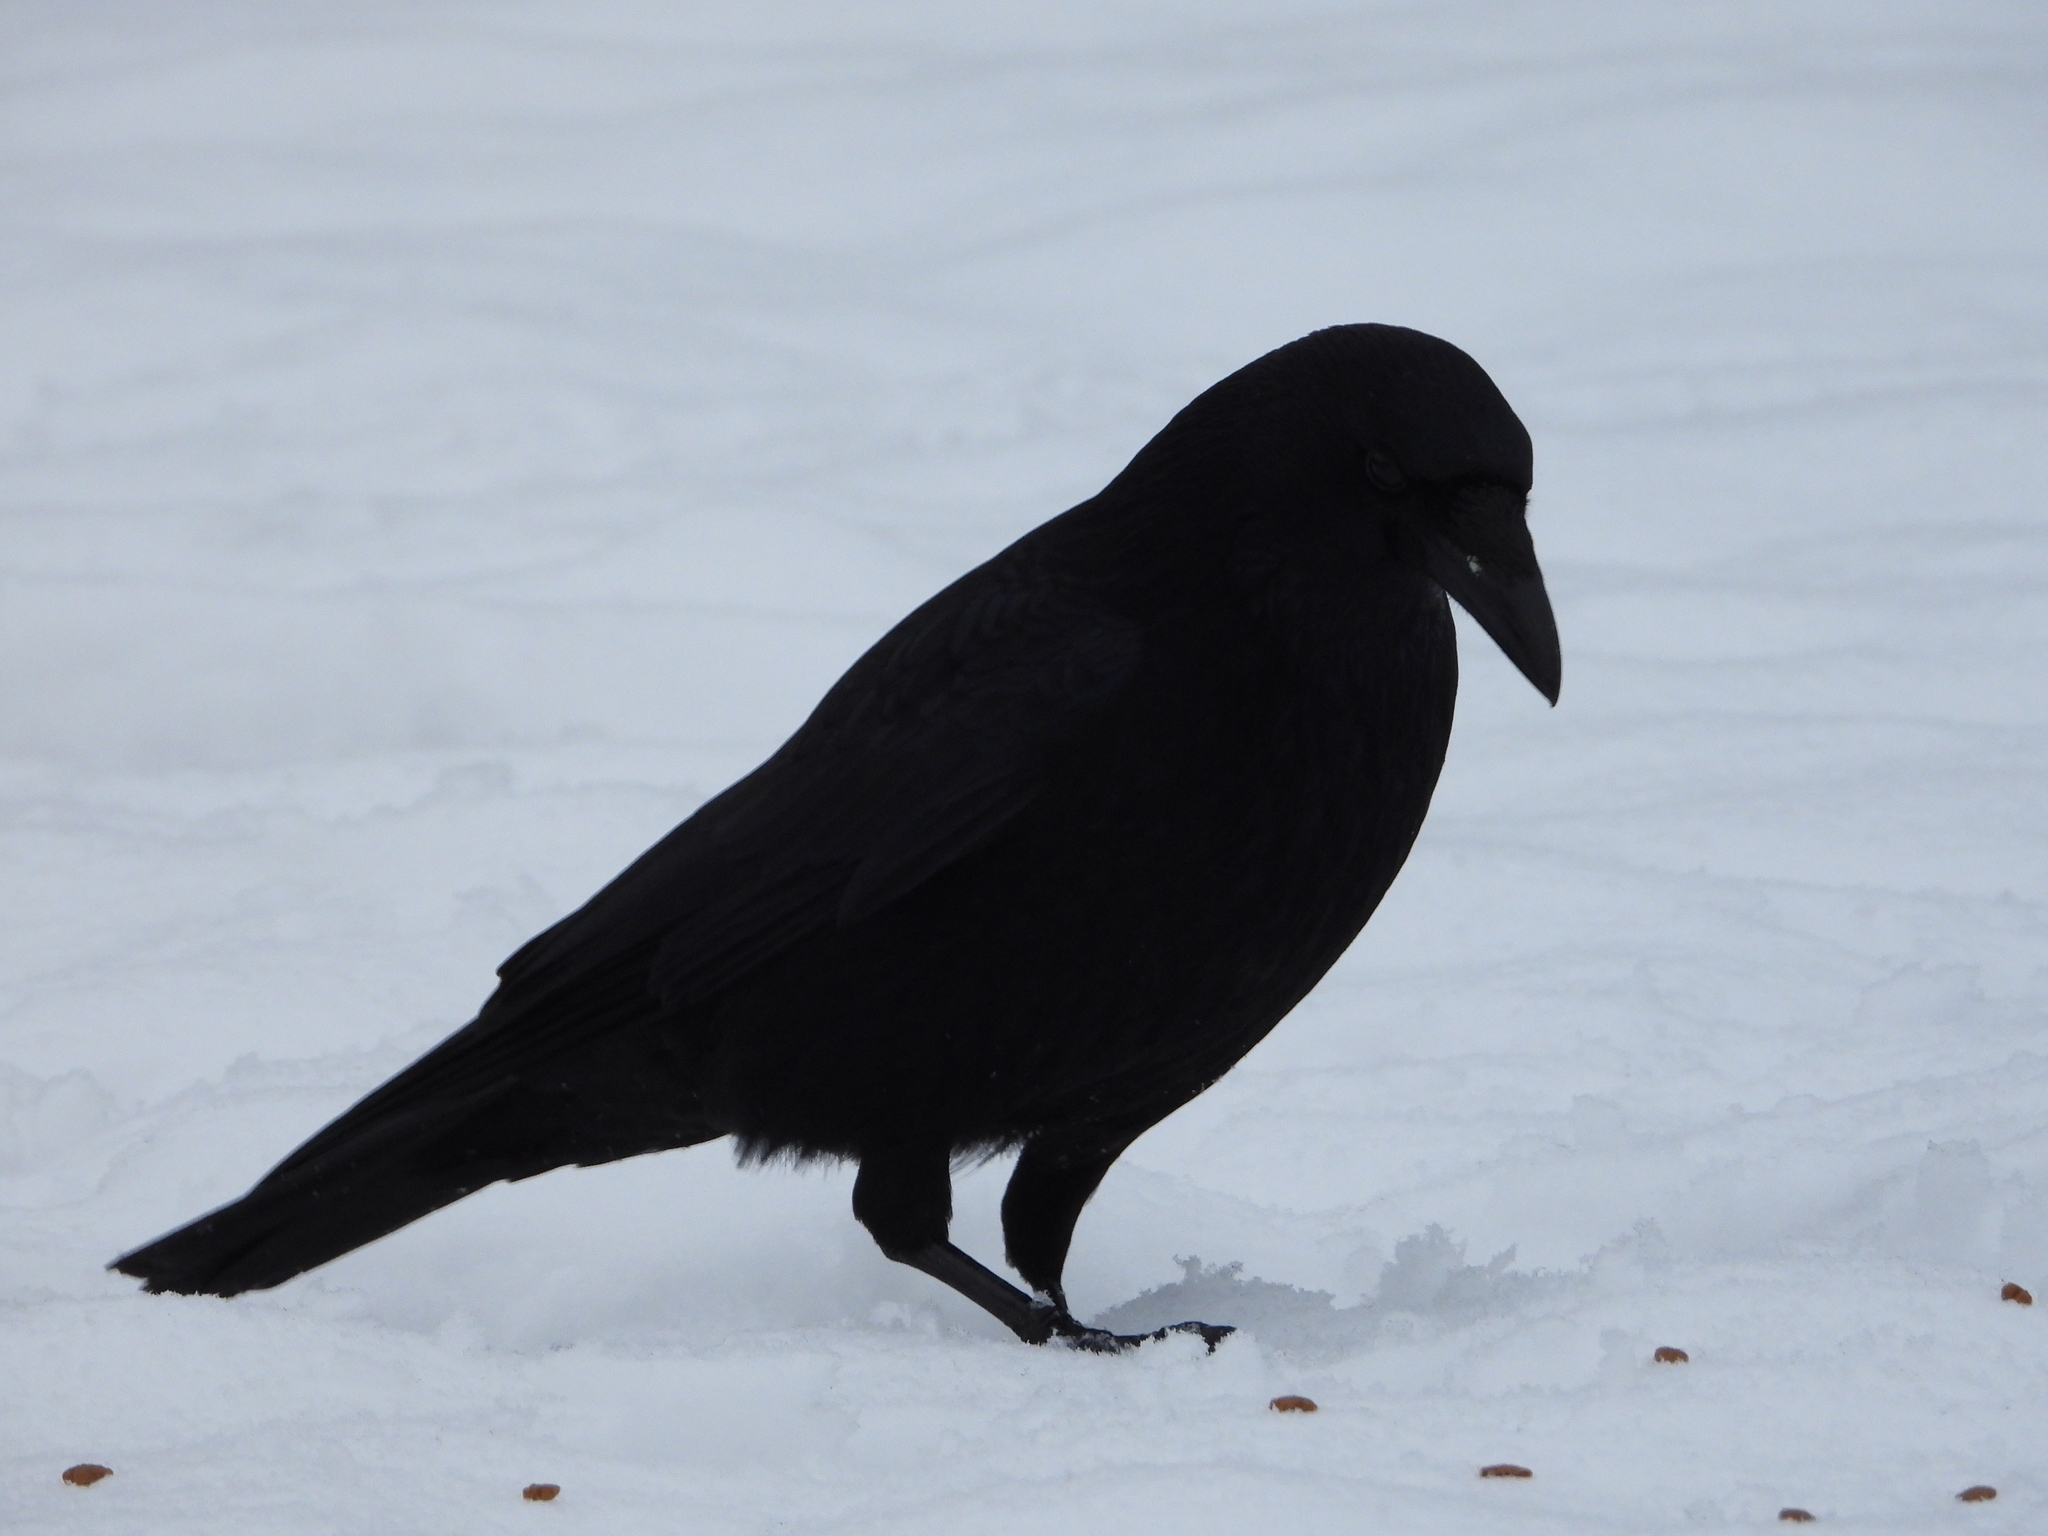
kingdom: Animalia
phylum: Chordata
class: Aves
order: Passeriformes
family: Corvidae
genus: Corvus
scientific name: Corvus corone
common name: Carrion crow
